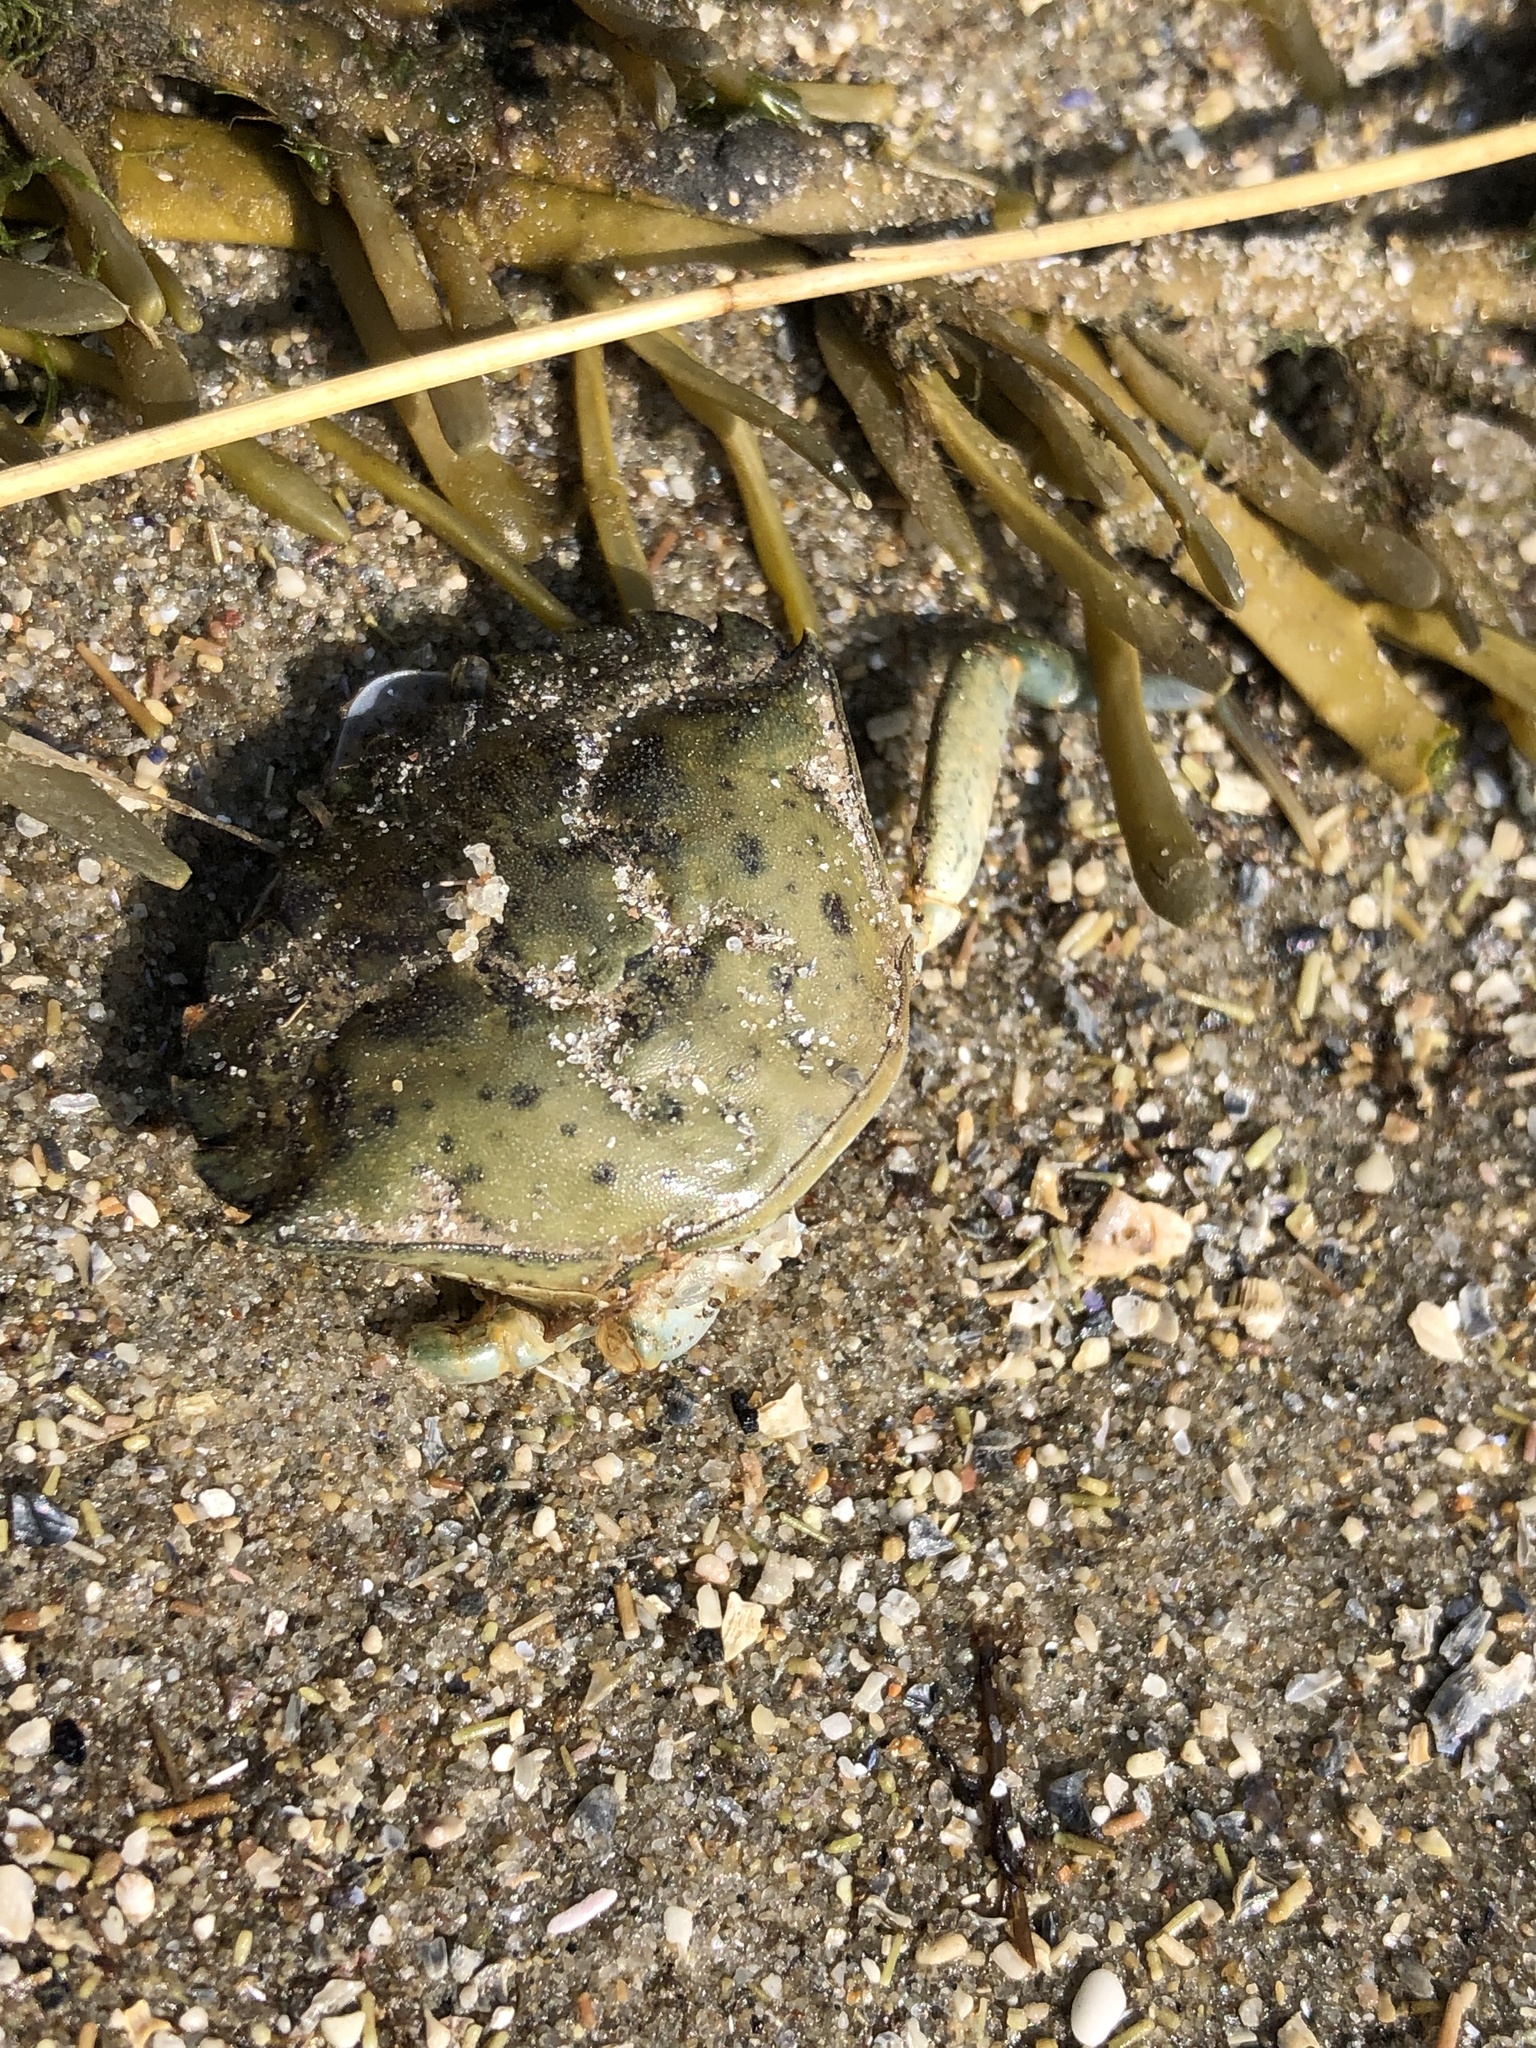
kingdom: Animalia
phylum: Arthropoda
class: Malacostraca
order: Decapoda
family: Carcinidae
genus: Carcinus
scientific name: Carcinus maenas
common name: European green crab
